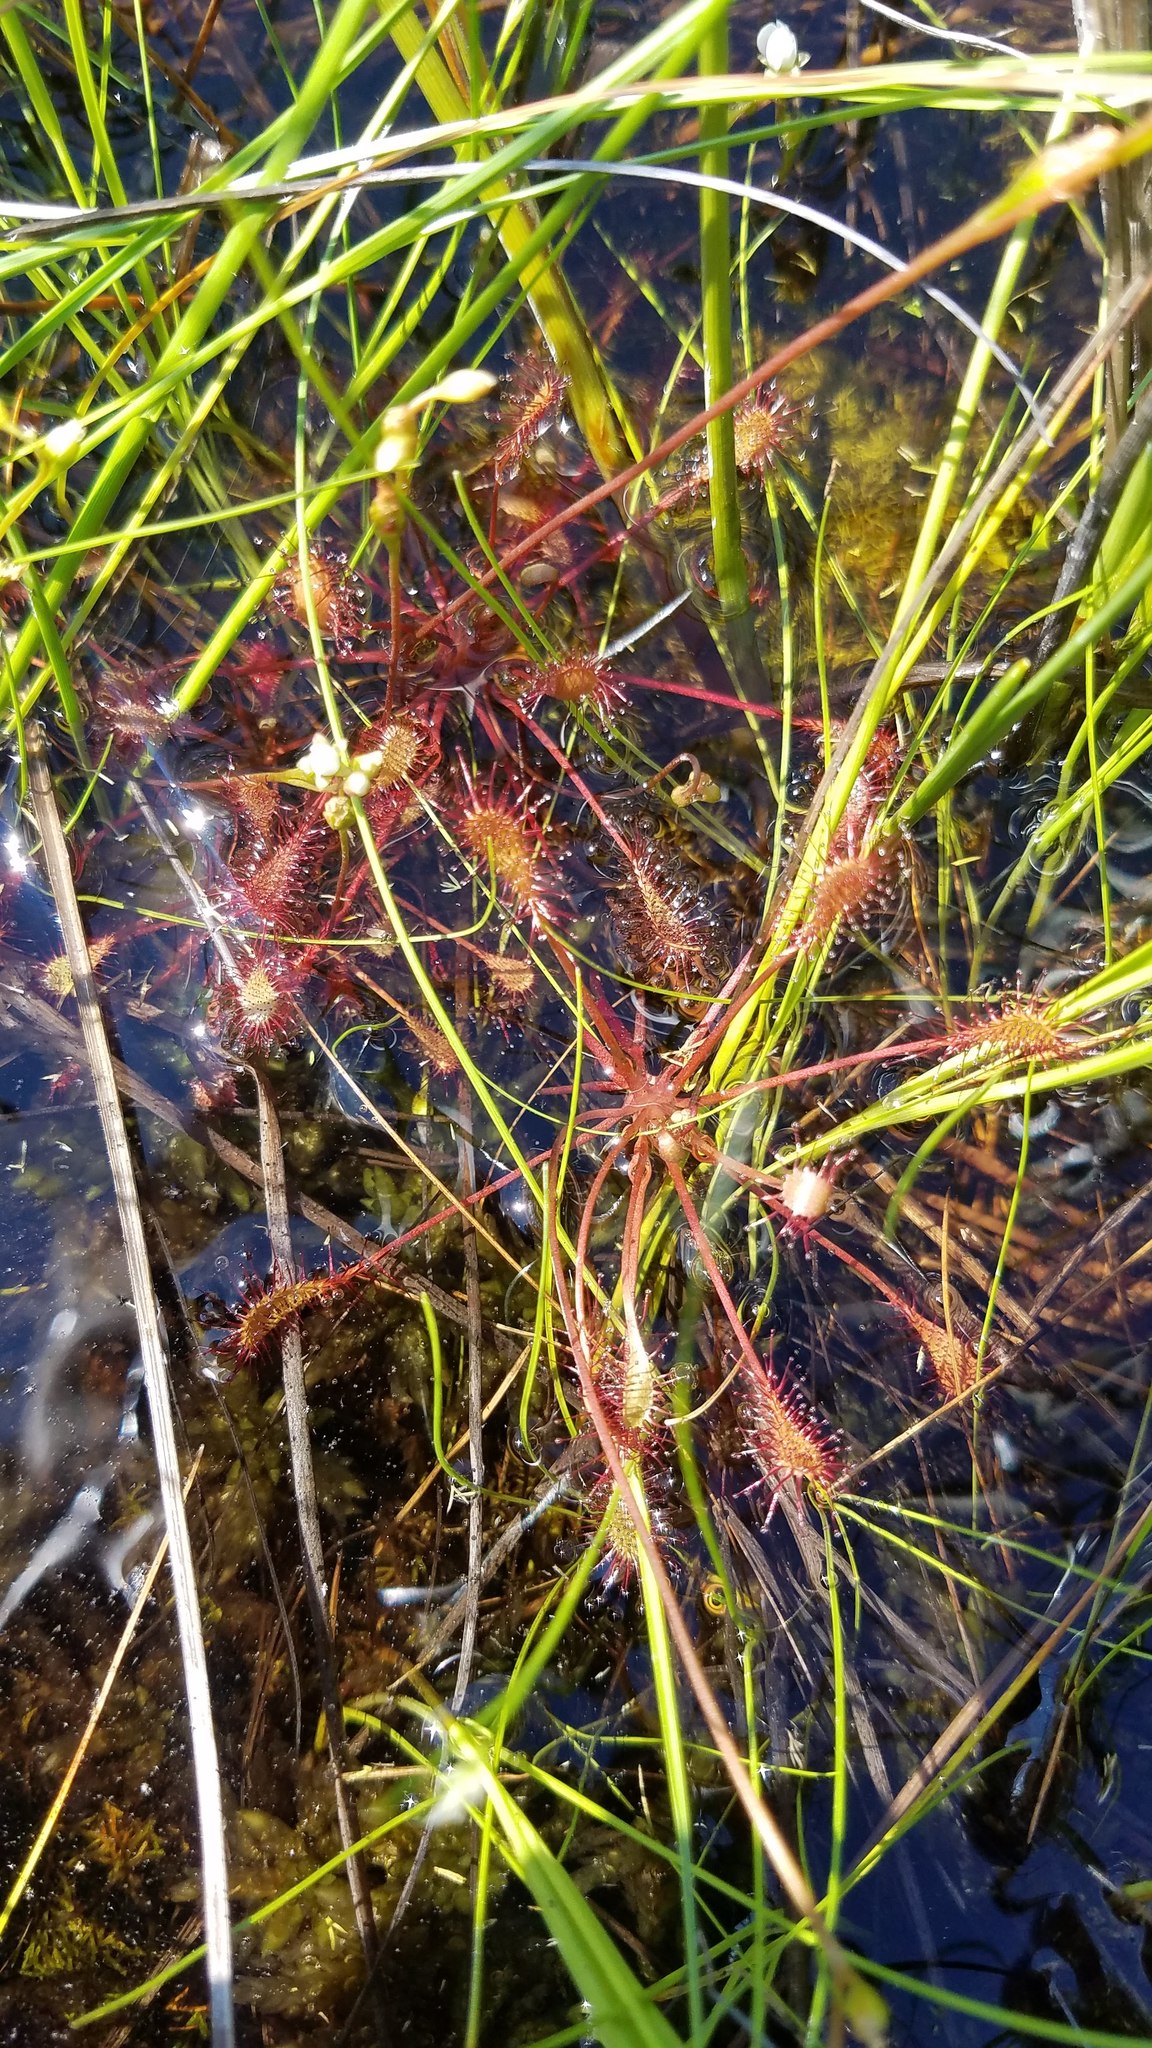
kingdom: Plantae
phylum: Tracheophyta
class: Magnoliopsida
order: Caryophyllales
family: Droseraceae
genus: Drosera
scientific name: Drosera intermedia
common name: Oblong-leaved sundew
